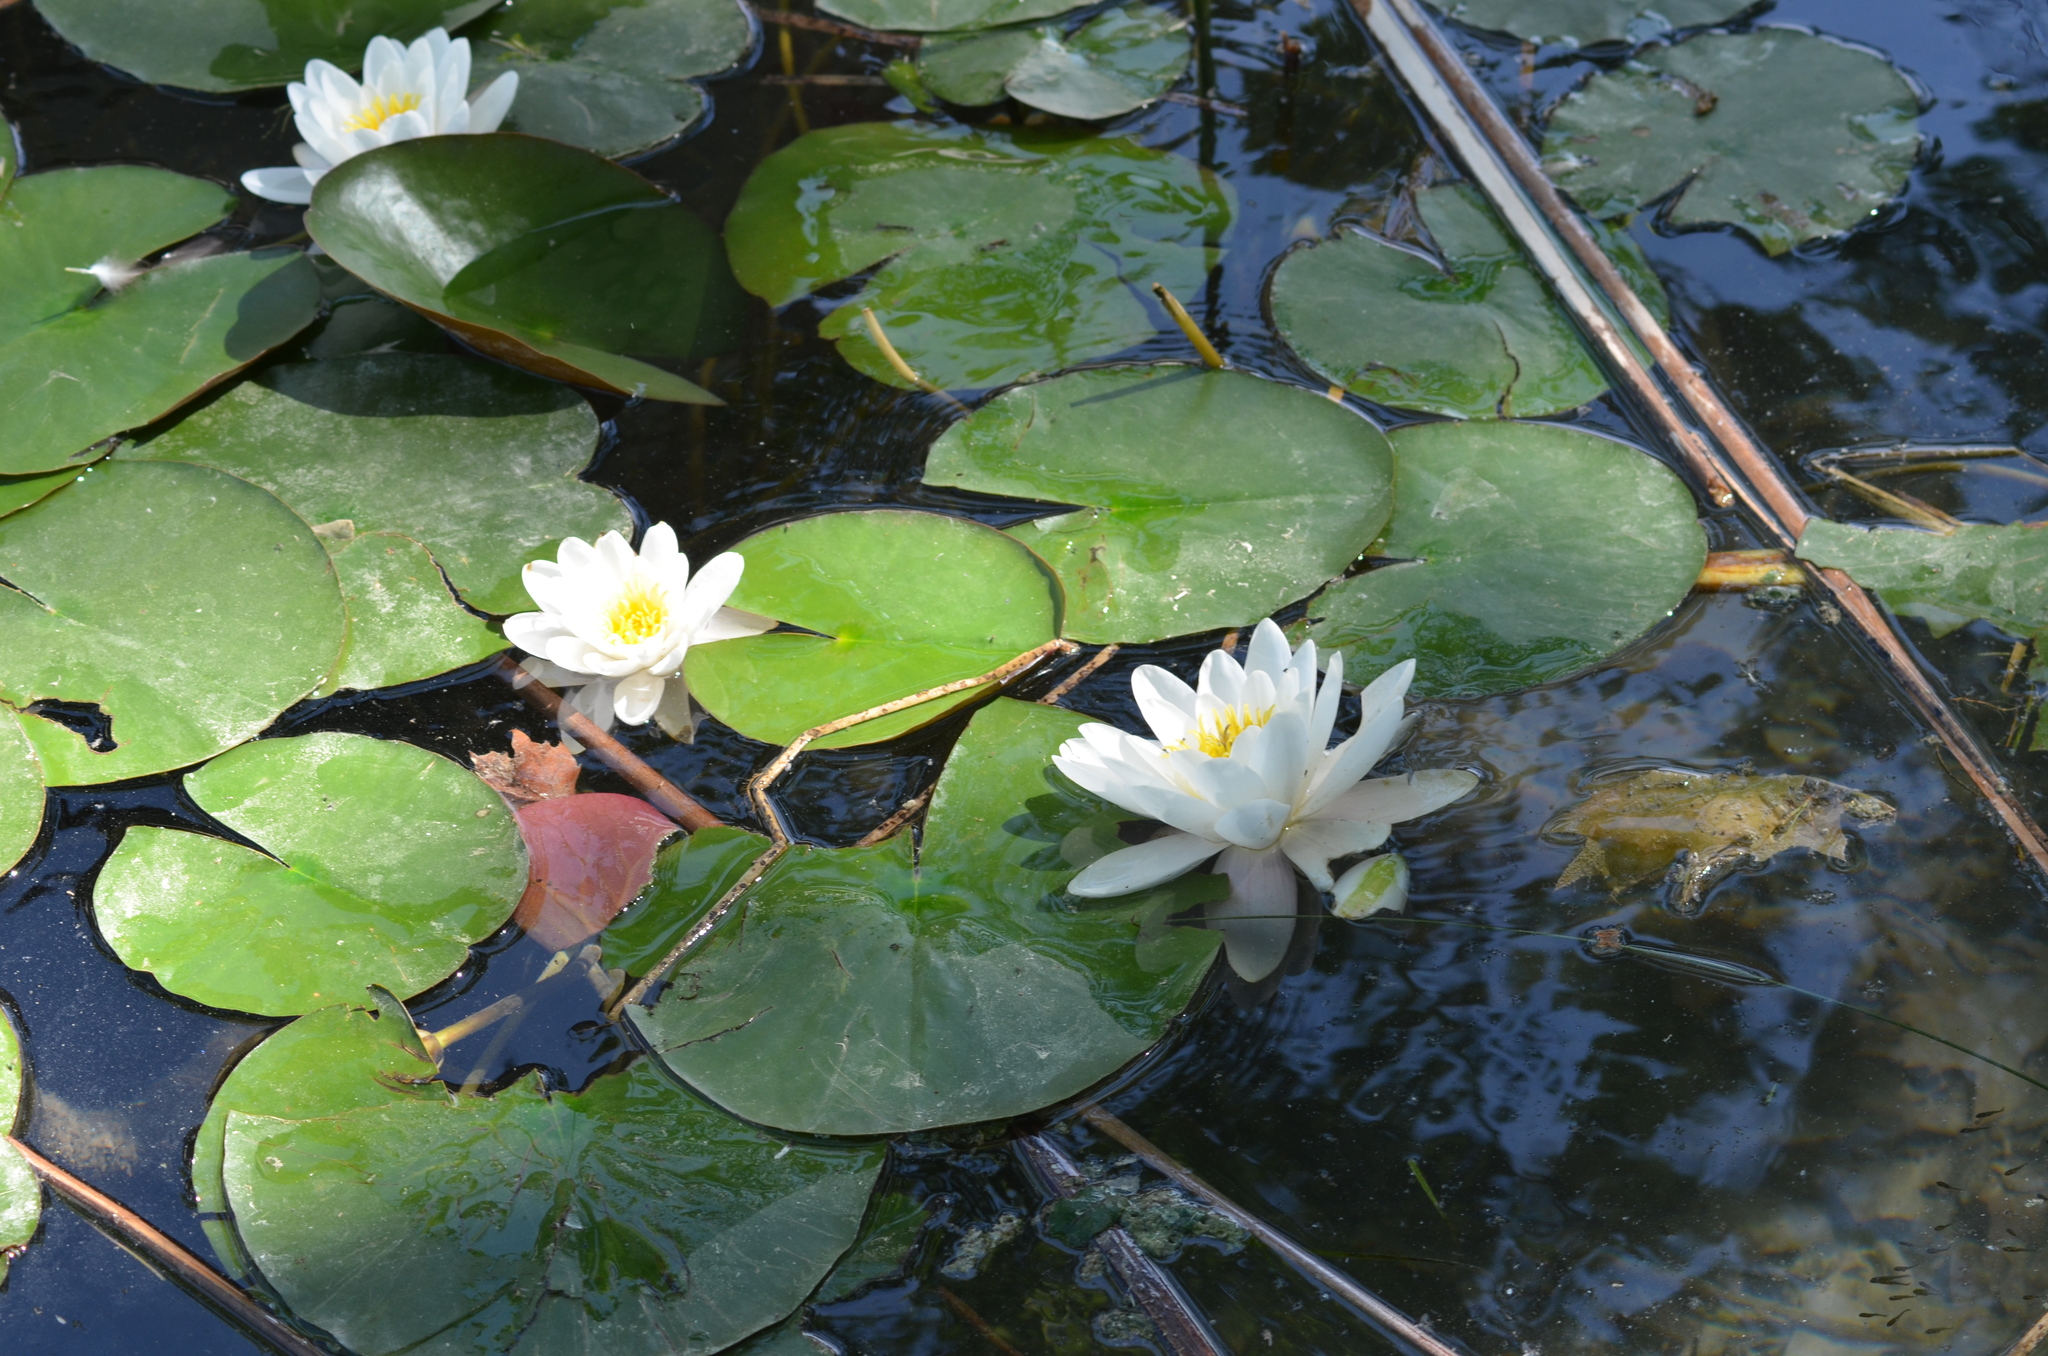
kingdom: Plantae
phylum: Tracheophyta
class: Magnoliopsida
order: Nymphaeales
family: Nymphaeaceae
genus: Nymphaea
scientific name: Nymphaea alba
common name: White water-lily
